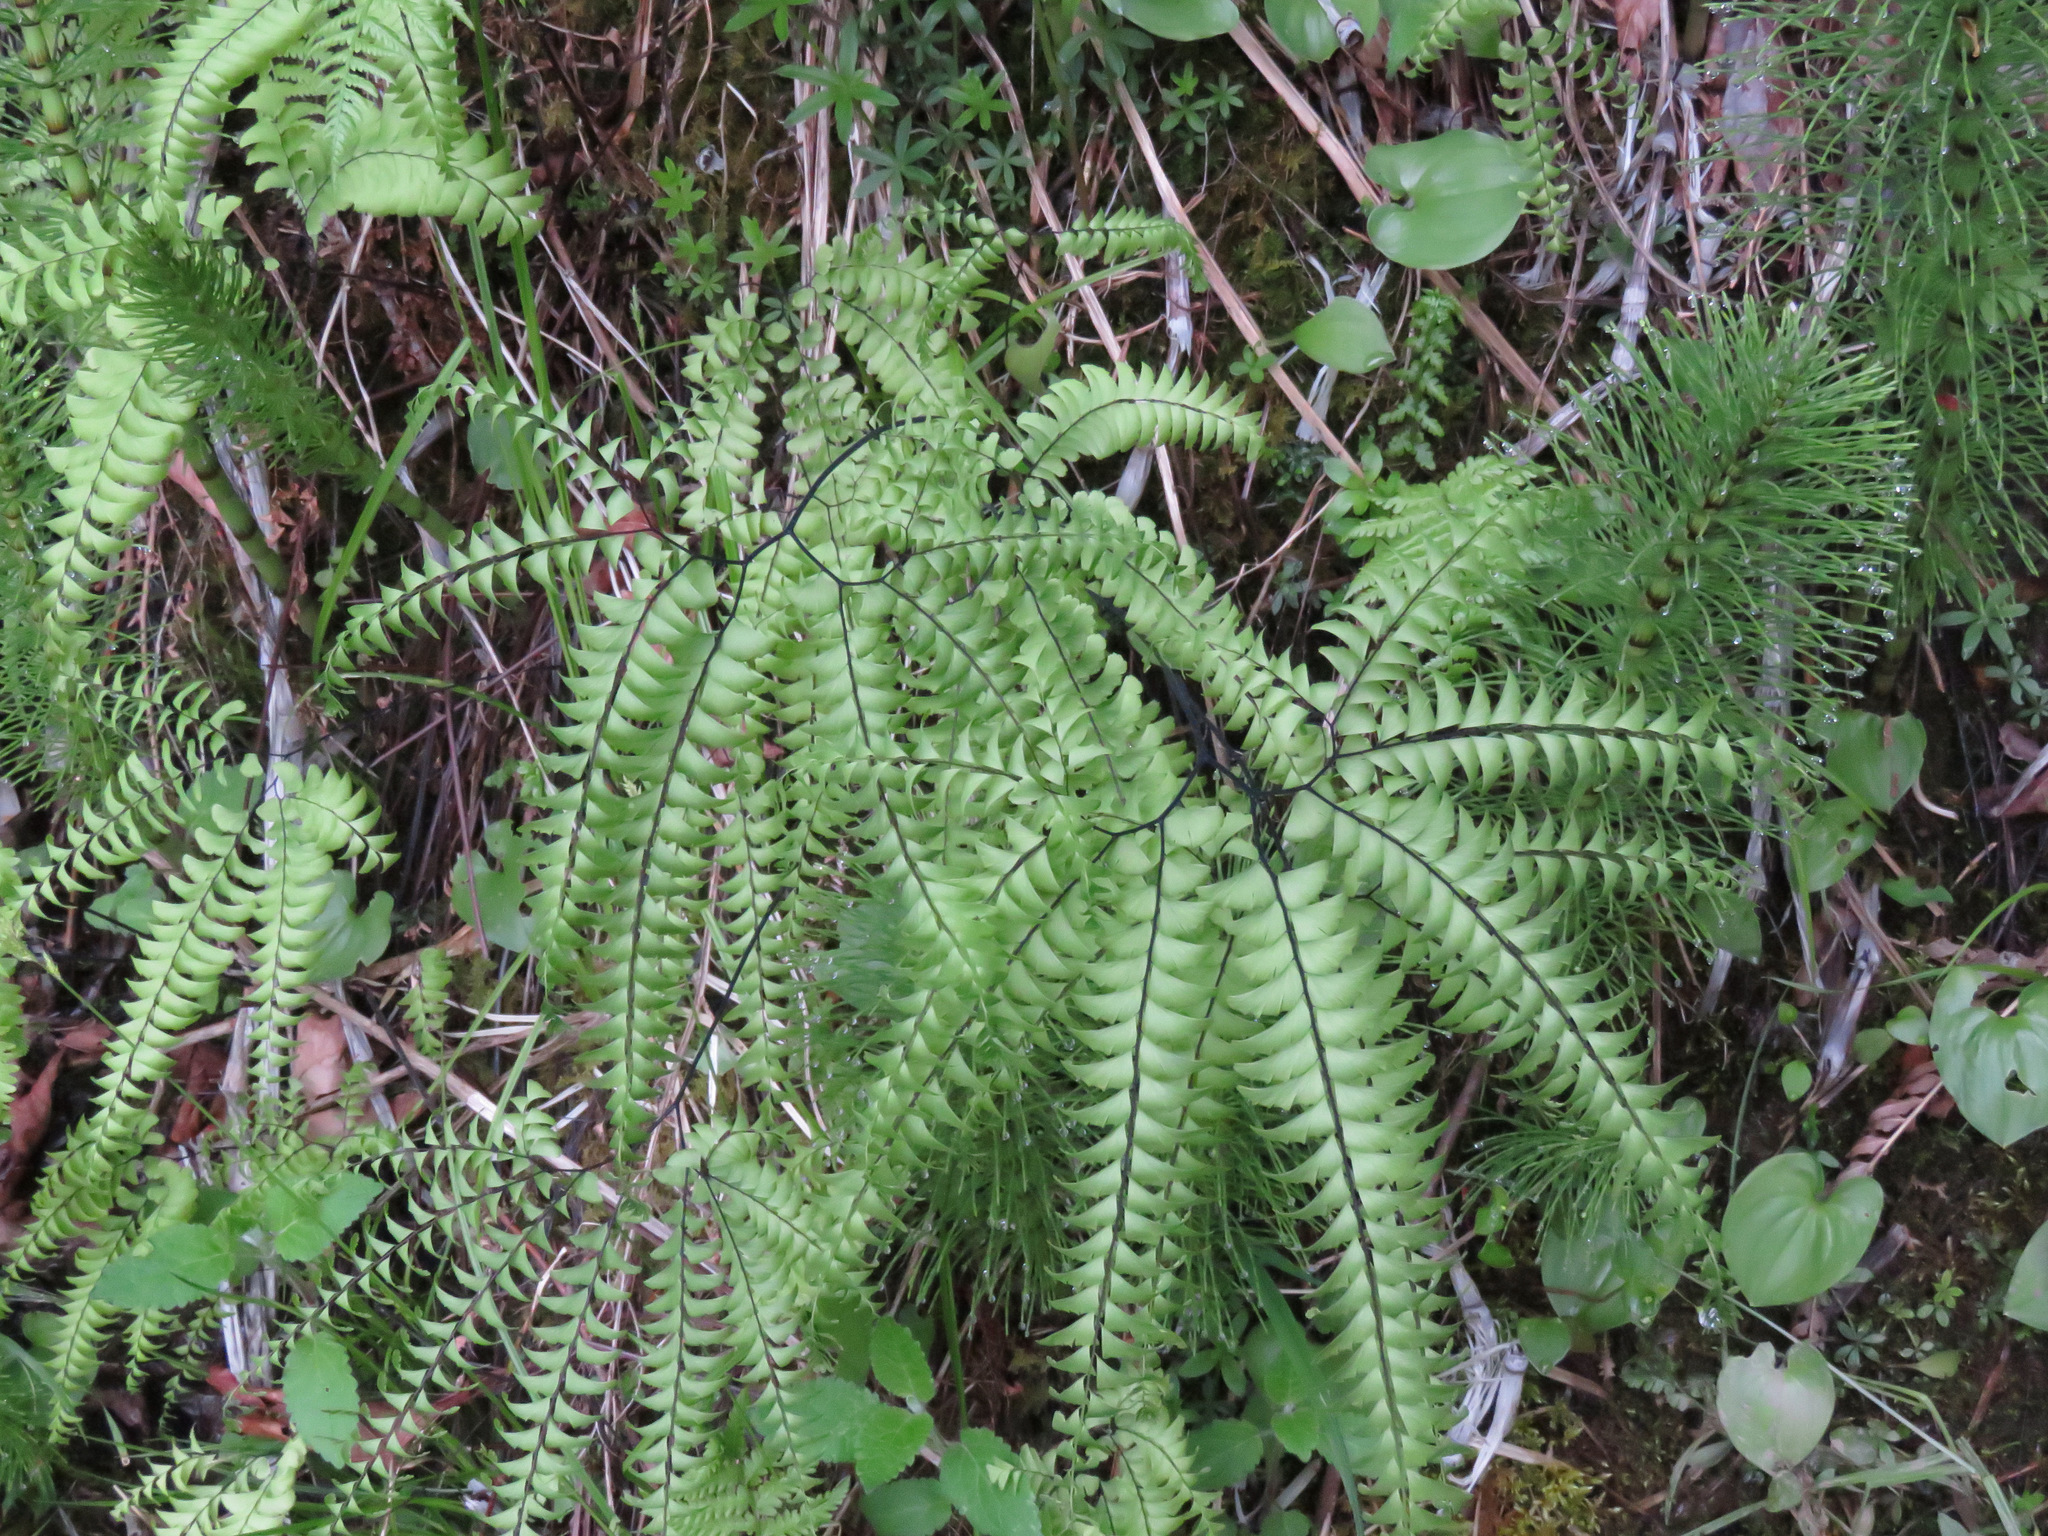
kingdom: Plantae
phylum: Tracheophyta
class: Polypodiopsida
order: Polypodiales
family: Pteridaceae
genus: Adiantum
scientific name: Adiantum aleuticum
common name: Aleutian maidenhair fern
